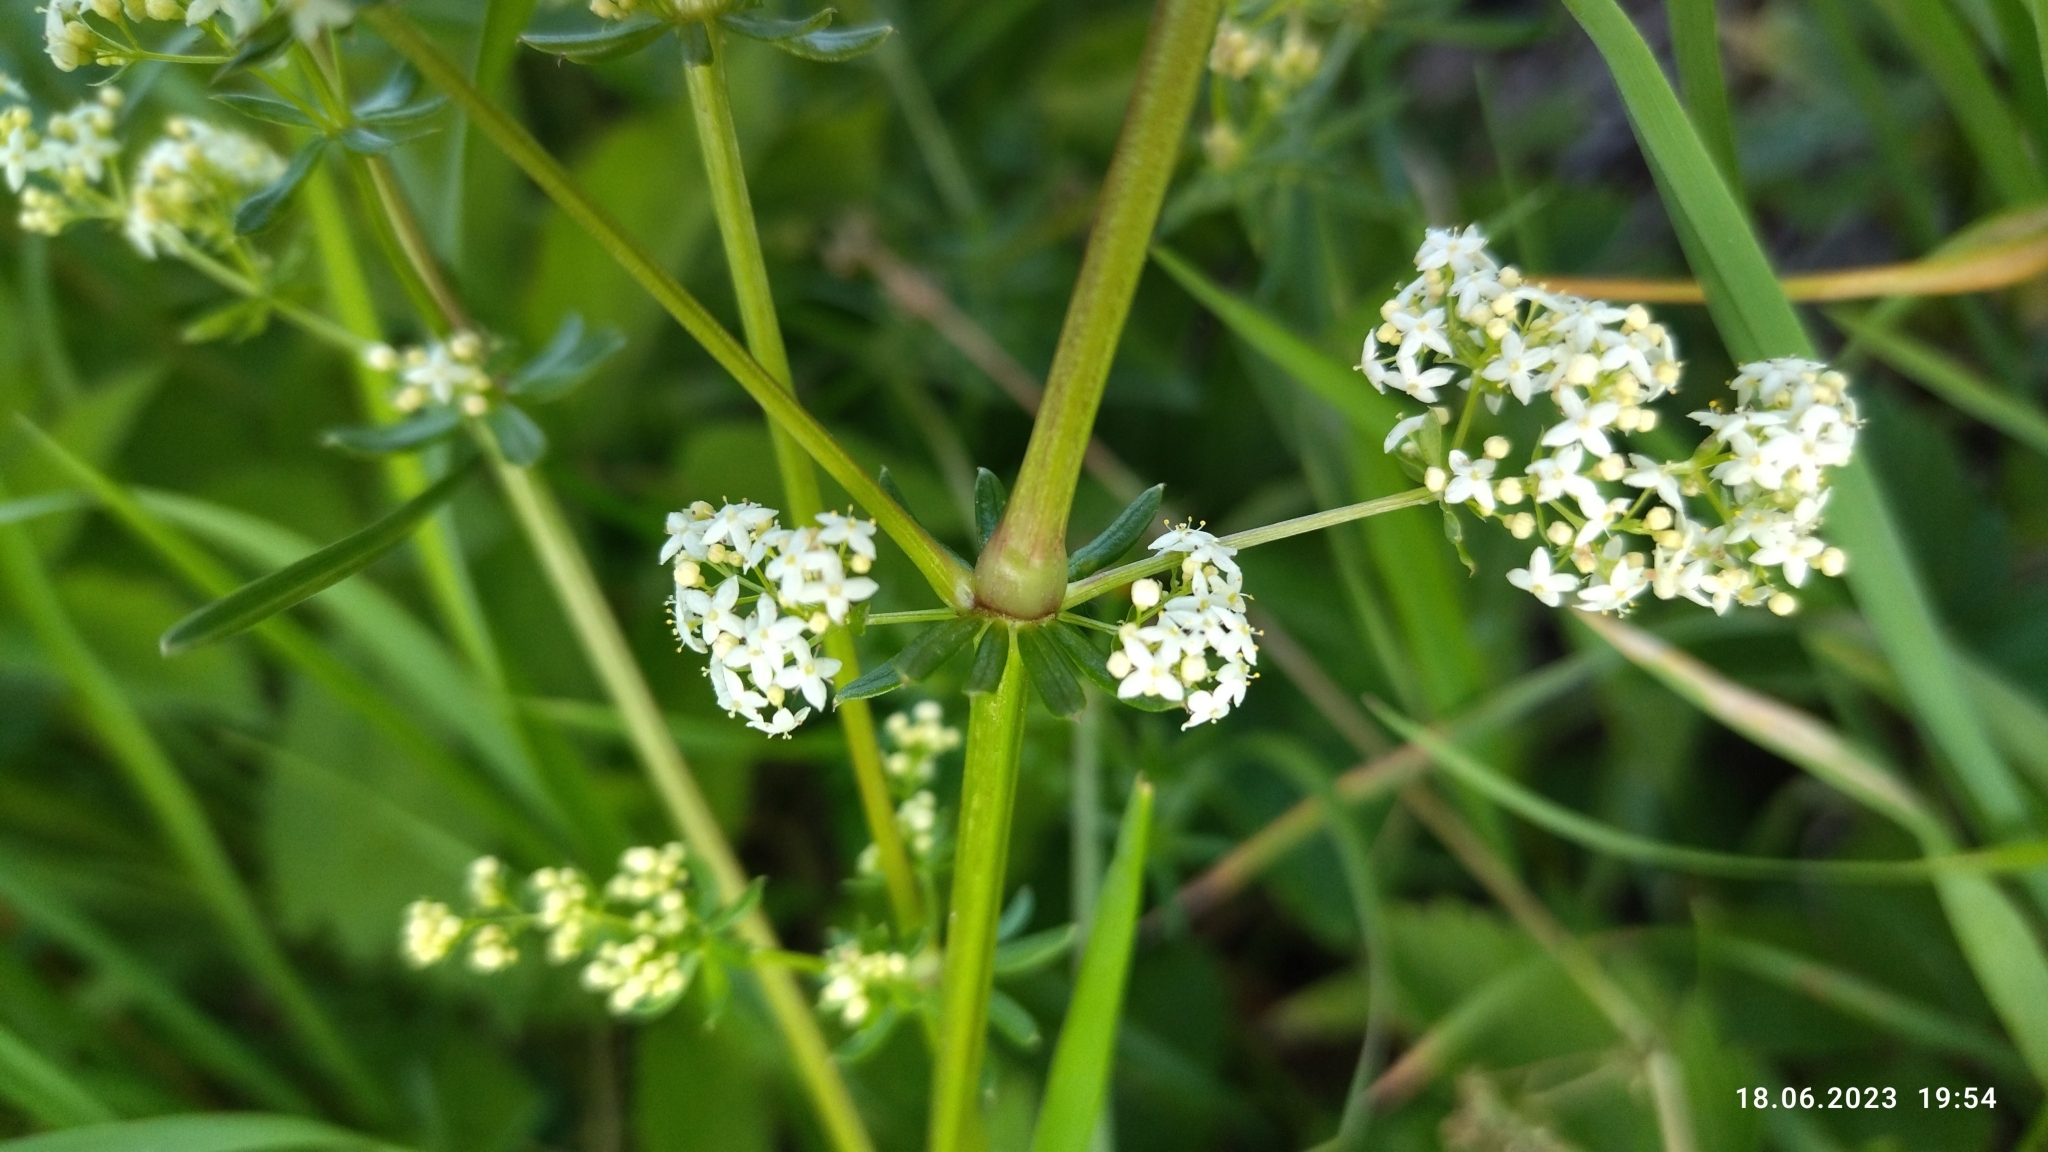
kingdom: Plantae
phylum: Tracheophyta
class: Magnoliopsida
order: Gentianales
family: Rubiaceae
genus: Galium
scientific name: Galium mollugo
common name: Hedge bedstraw
